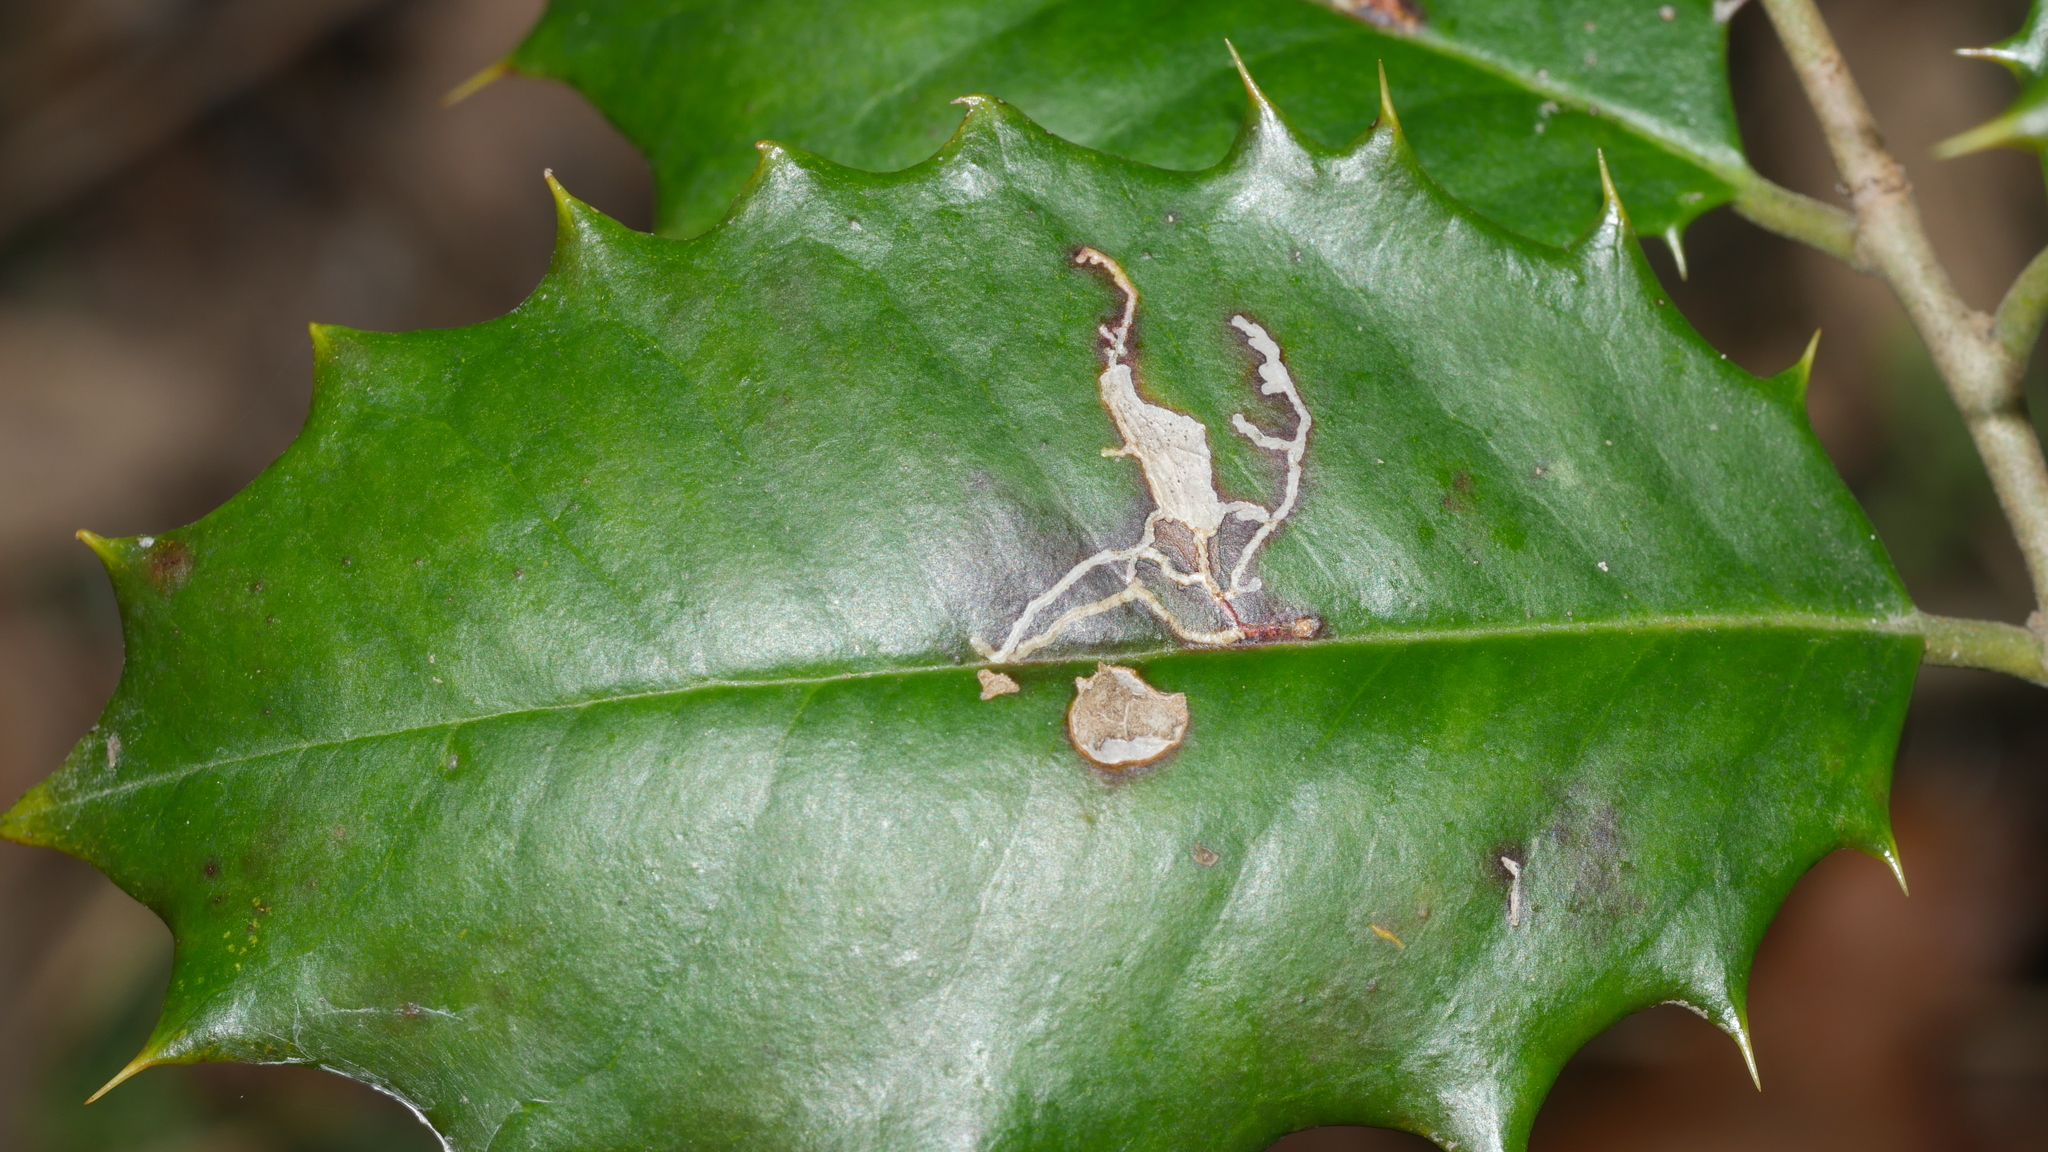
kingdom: Animalia
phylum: Arthropoda
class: Insecta
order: Lepidoptera
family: Tortricidae
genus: Rhopobota
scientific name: Rhopobota
